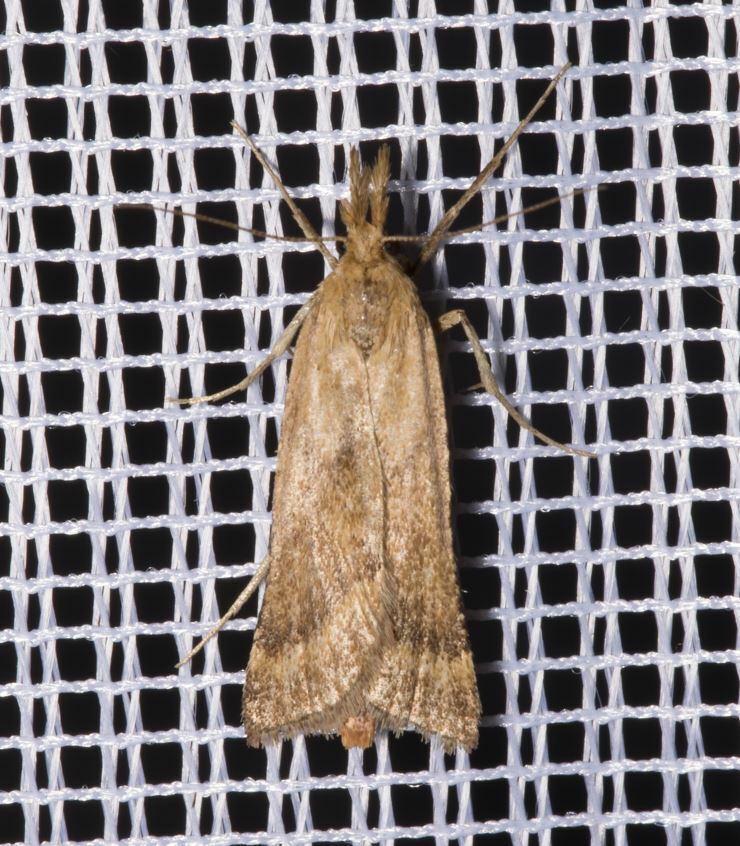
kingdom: Animalia
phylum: Arthropoda
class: Insecta
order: Lepidoptera
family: Pyralidae
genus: Synaphe
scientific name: Synaphe punctalis
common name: Long-legged tabby
